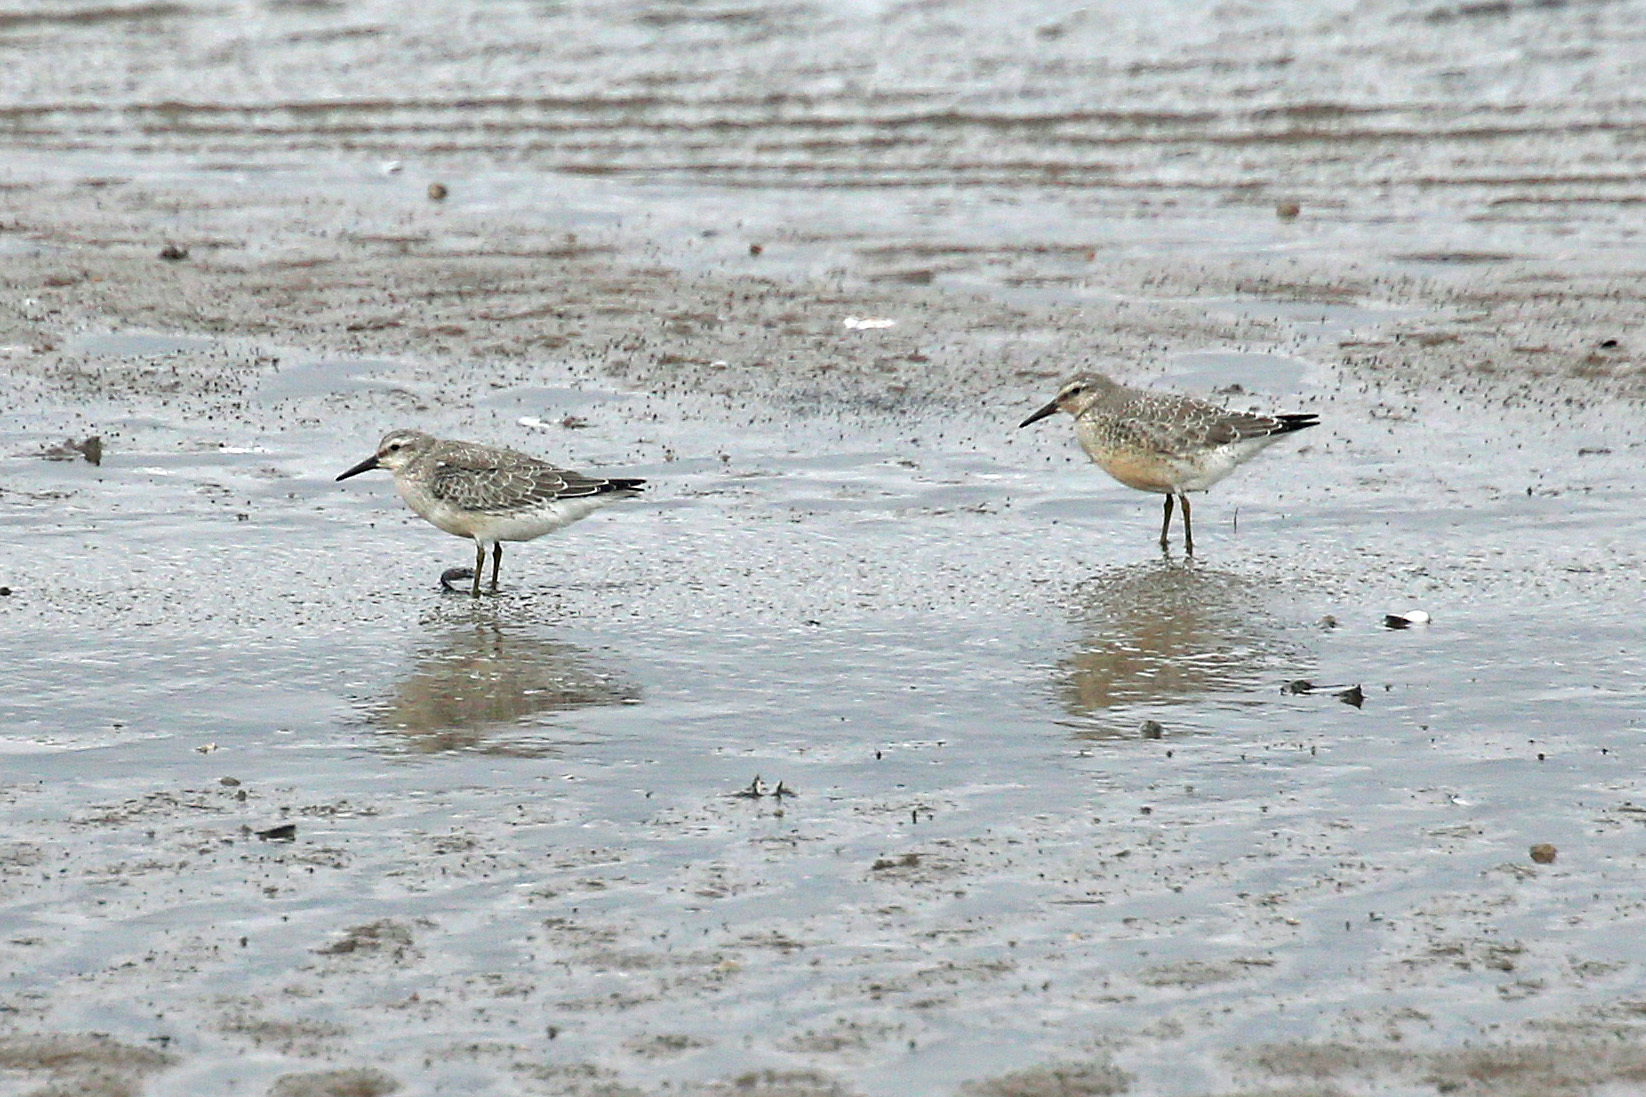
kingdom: Animalia
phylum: Chordata
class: Aves
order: Charadriiformes
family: Scolopacidae
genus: Calidris
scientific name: Calidris canutus
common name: Red knot
